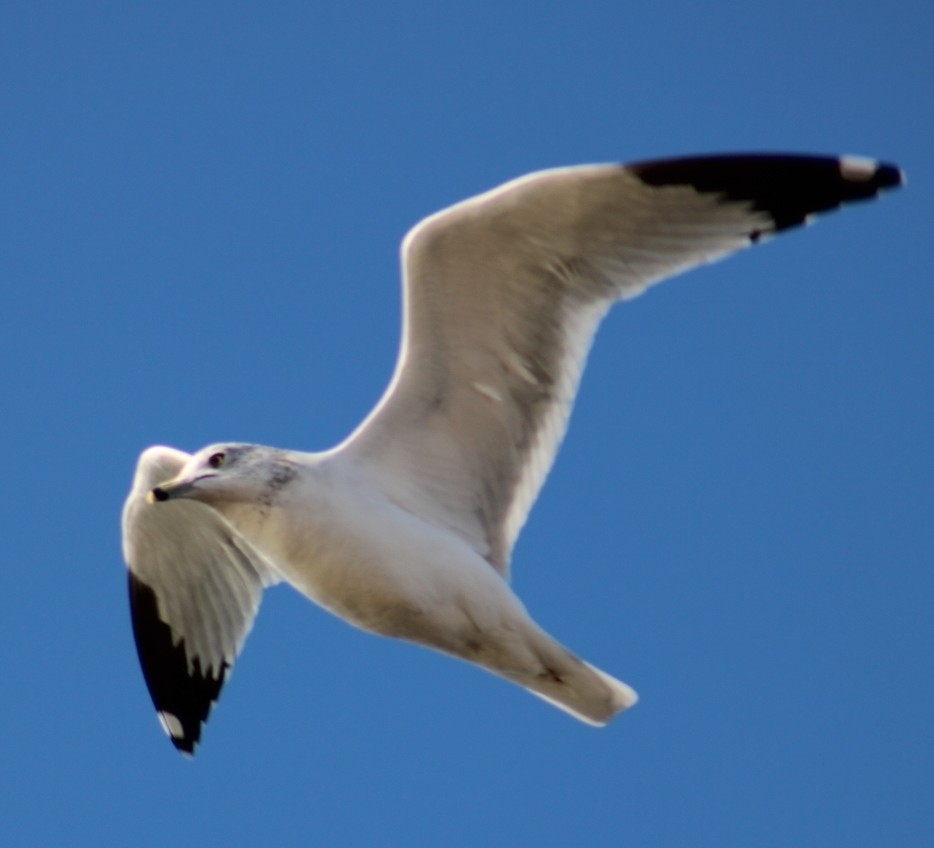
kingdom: Animalia
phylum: Chordata
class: Aves
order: Charadriiformes
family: Laridae
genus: Larus
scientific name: Larus delawarensis
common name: Ring-billed gull
